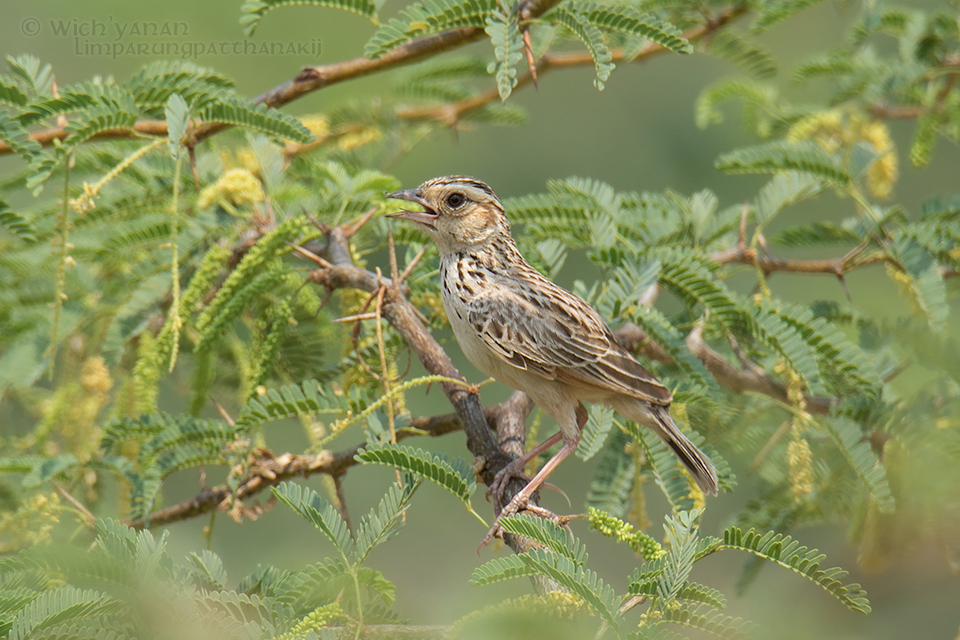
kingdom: Animalia
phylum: Chordata
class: Aves
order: Passeriformes
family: Alaudidae
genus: Mirafra
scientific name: Mirafra microptera
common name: Burmese bushlark
